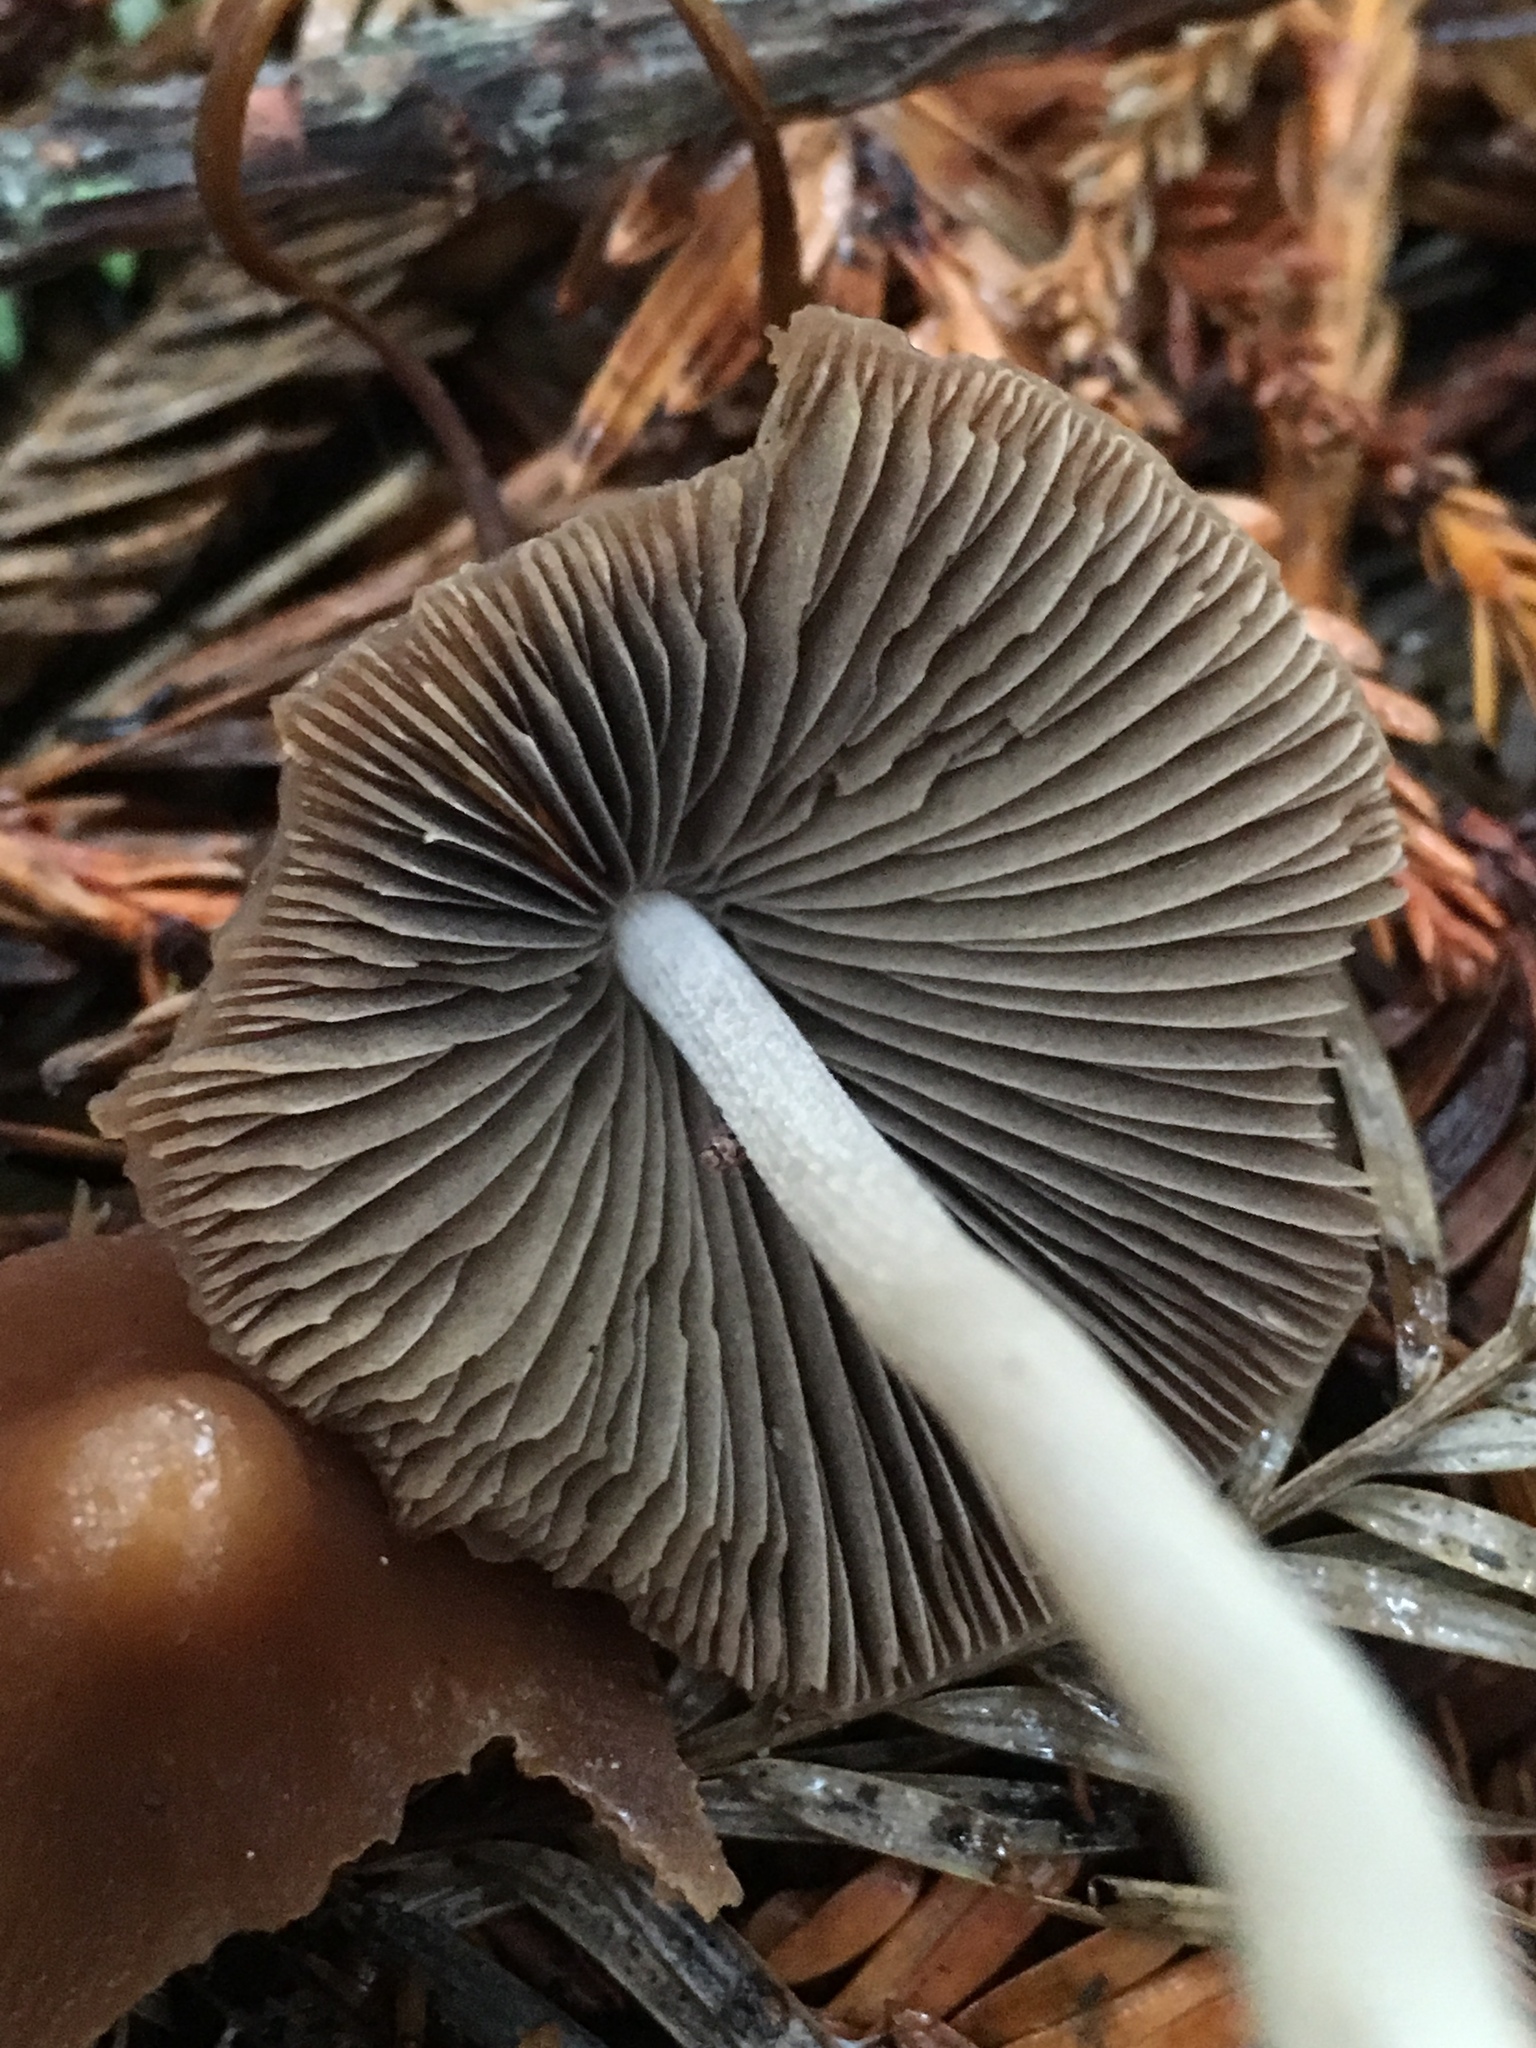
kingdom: Fungi
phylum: Basidiomycota
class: Agaricomycetes
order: Agaricales
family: Psathyrellaceae
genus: Parasola
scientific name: Parasola conopilea
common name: Conical brittlestem
